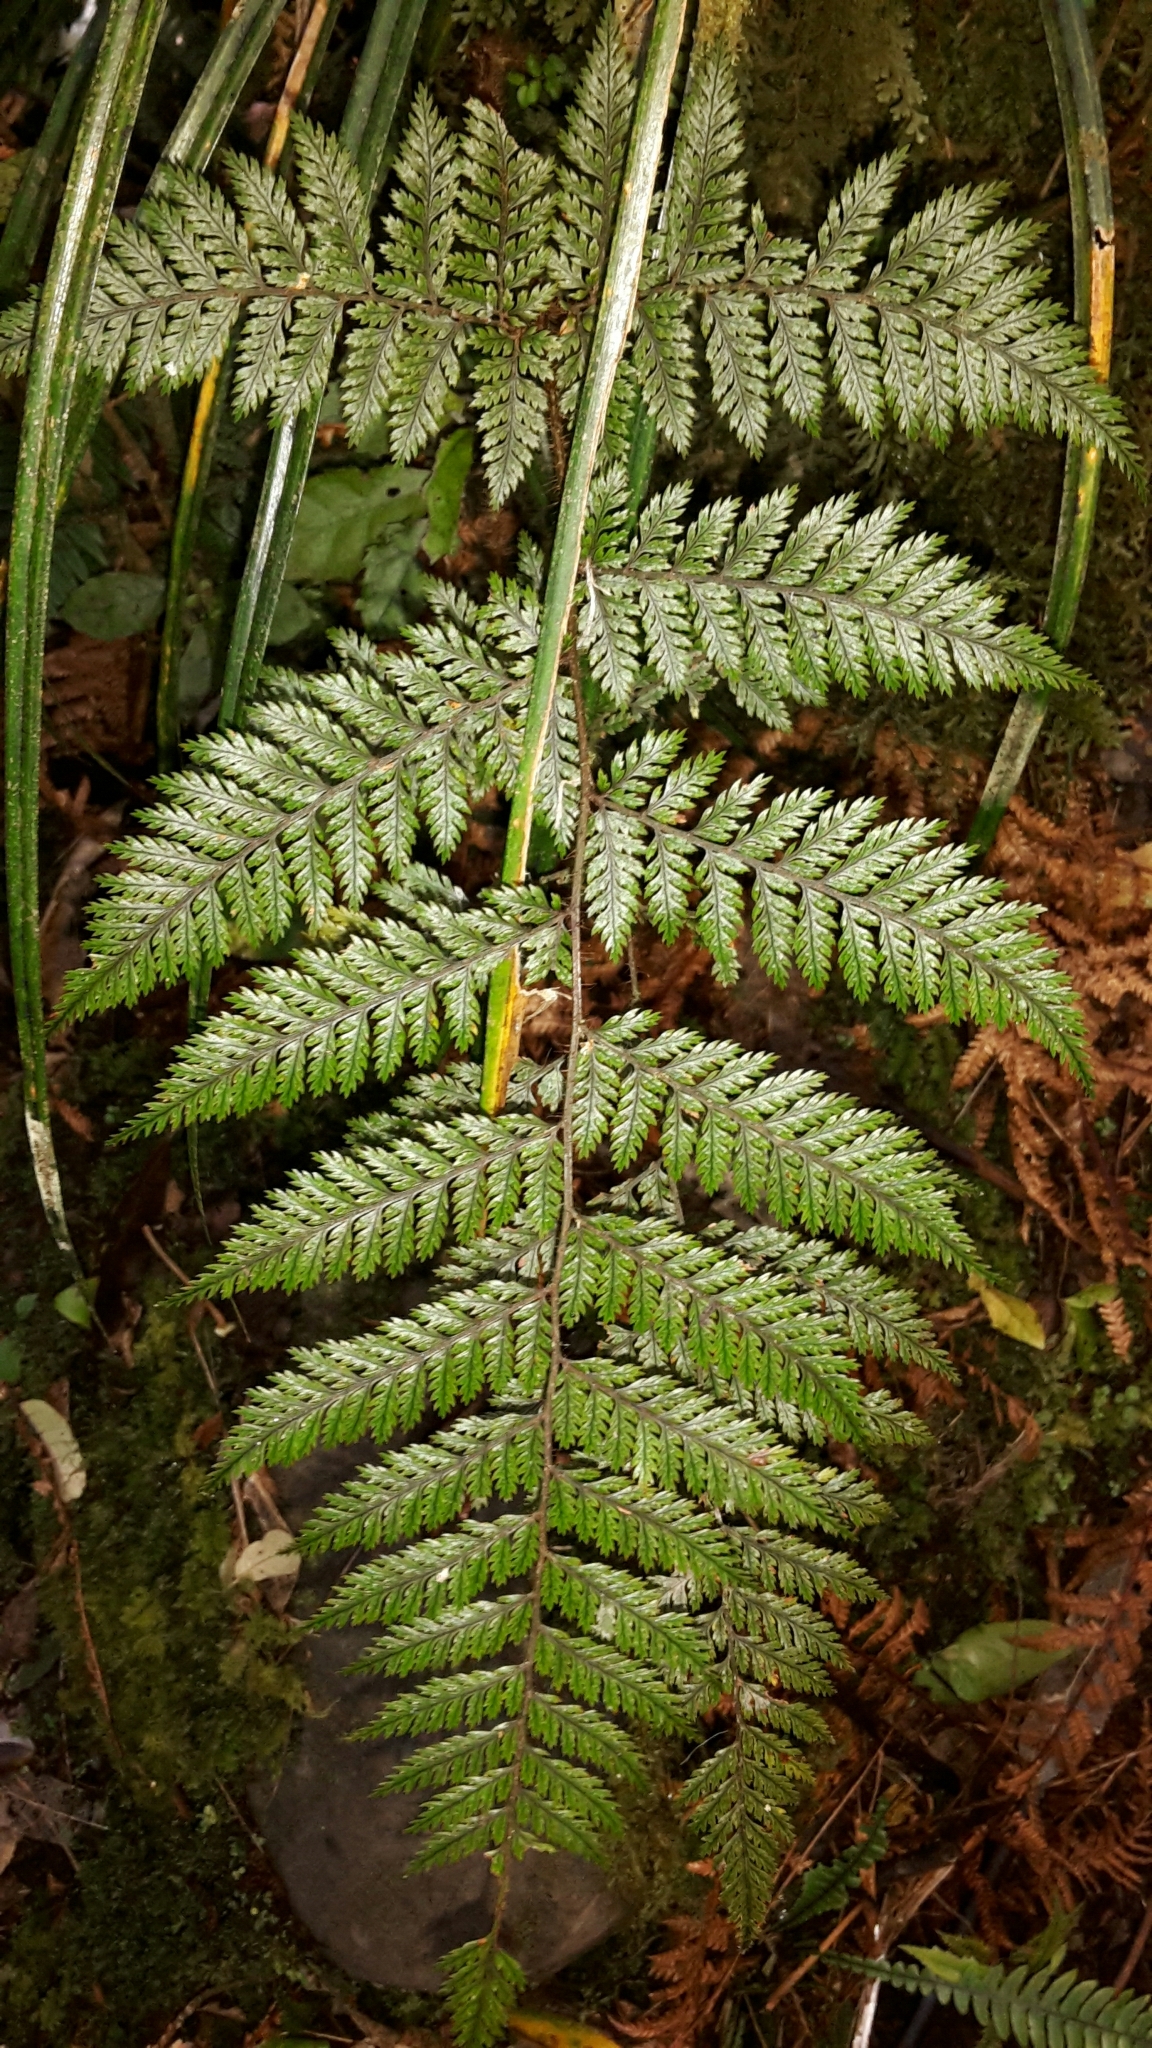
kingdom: Plantae
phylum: Tracheophyta
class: Polypodiopsida
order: Polypodiales
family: Dryopteridaceae
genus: Lastreopsis
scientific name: Lastreopsis hispida
